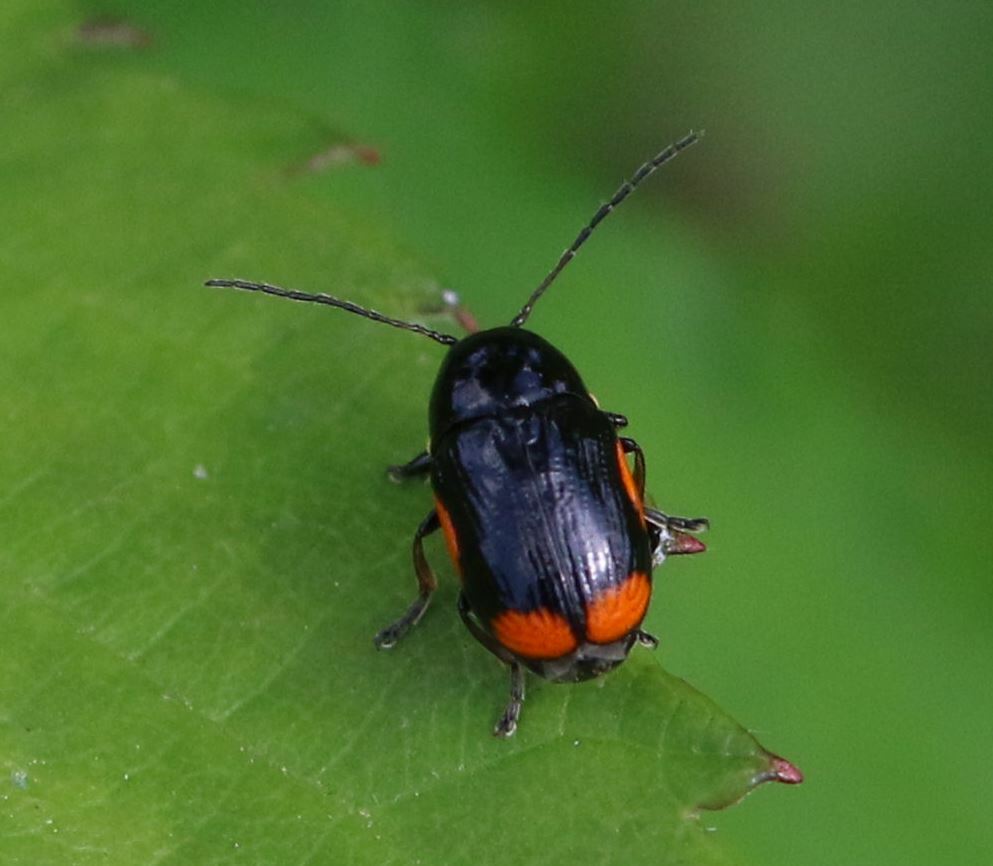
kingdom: Animalia
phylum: Arthropoda
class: Insecta
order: Coleoptera
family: Chrysomelidae
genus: Cryptocephalus
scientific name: Cryptocephalus moraei
